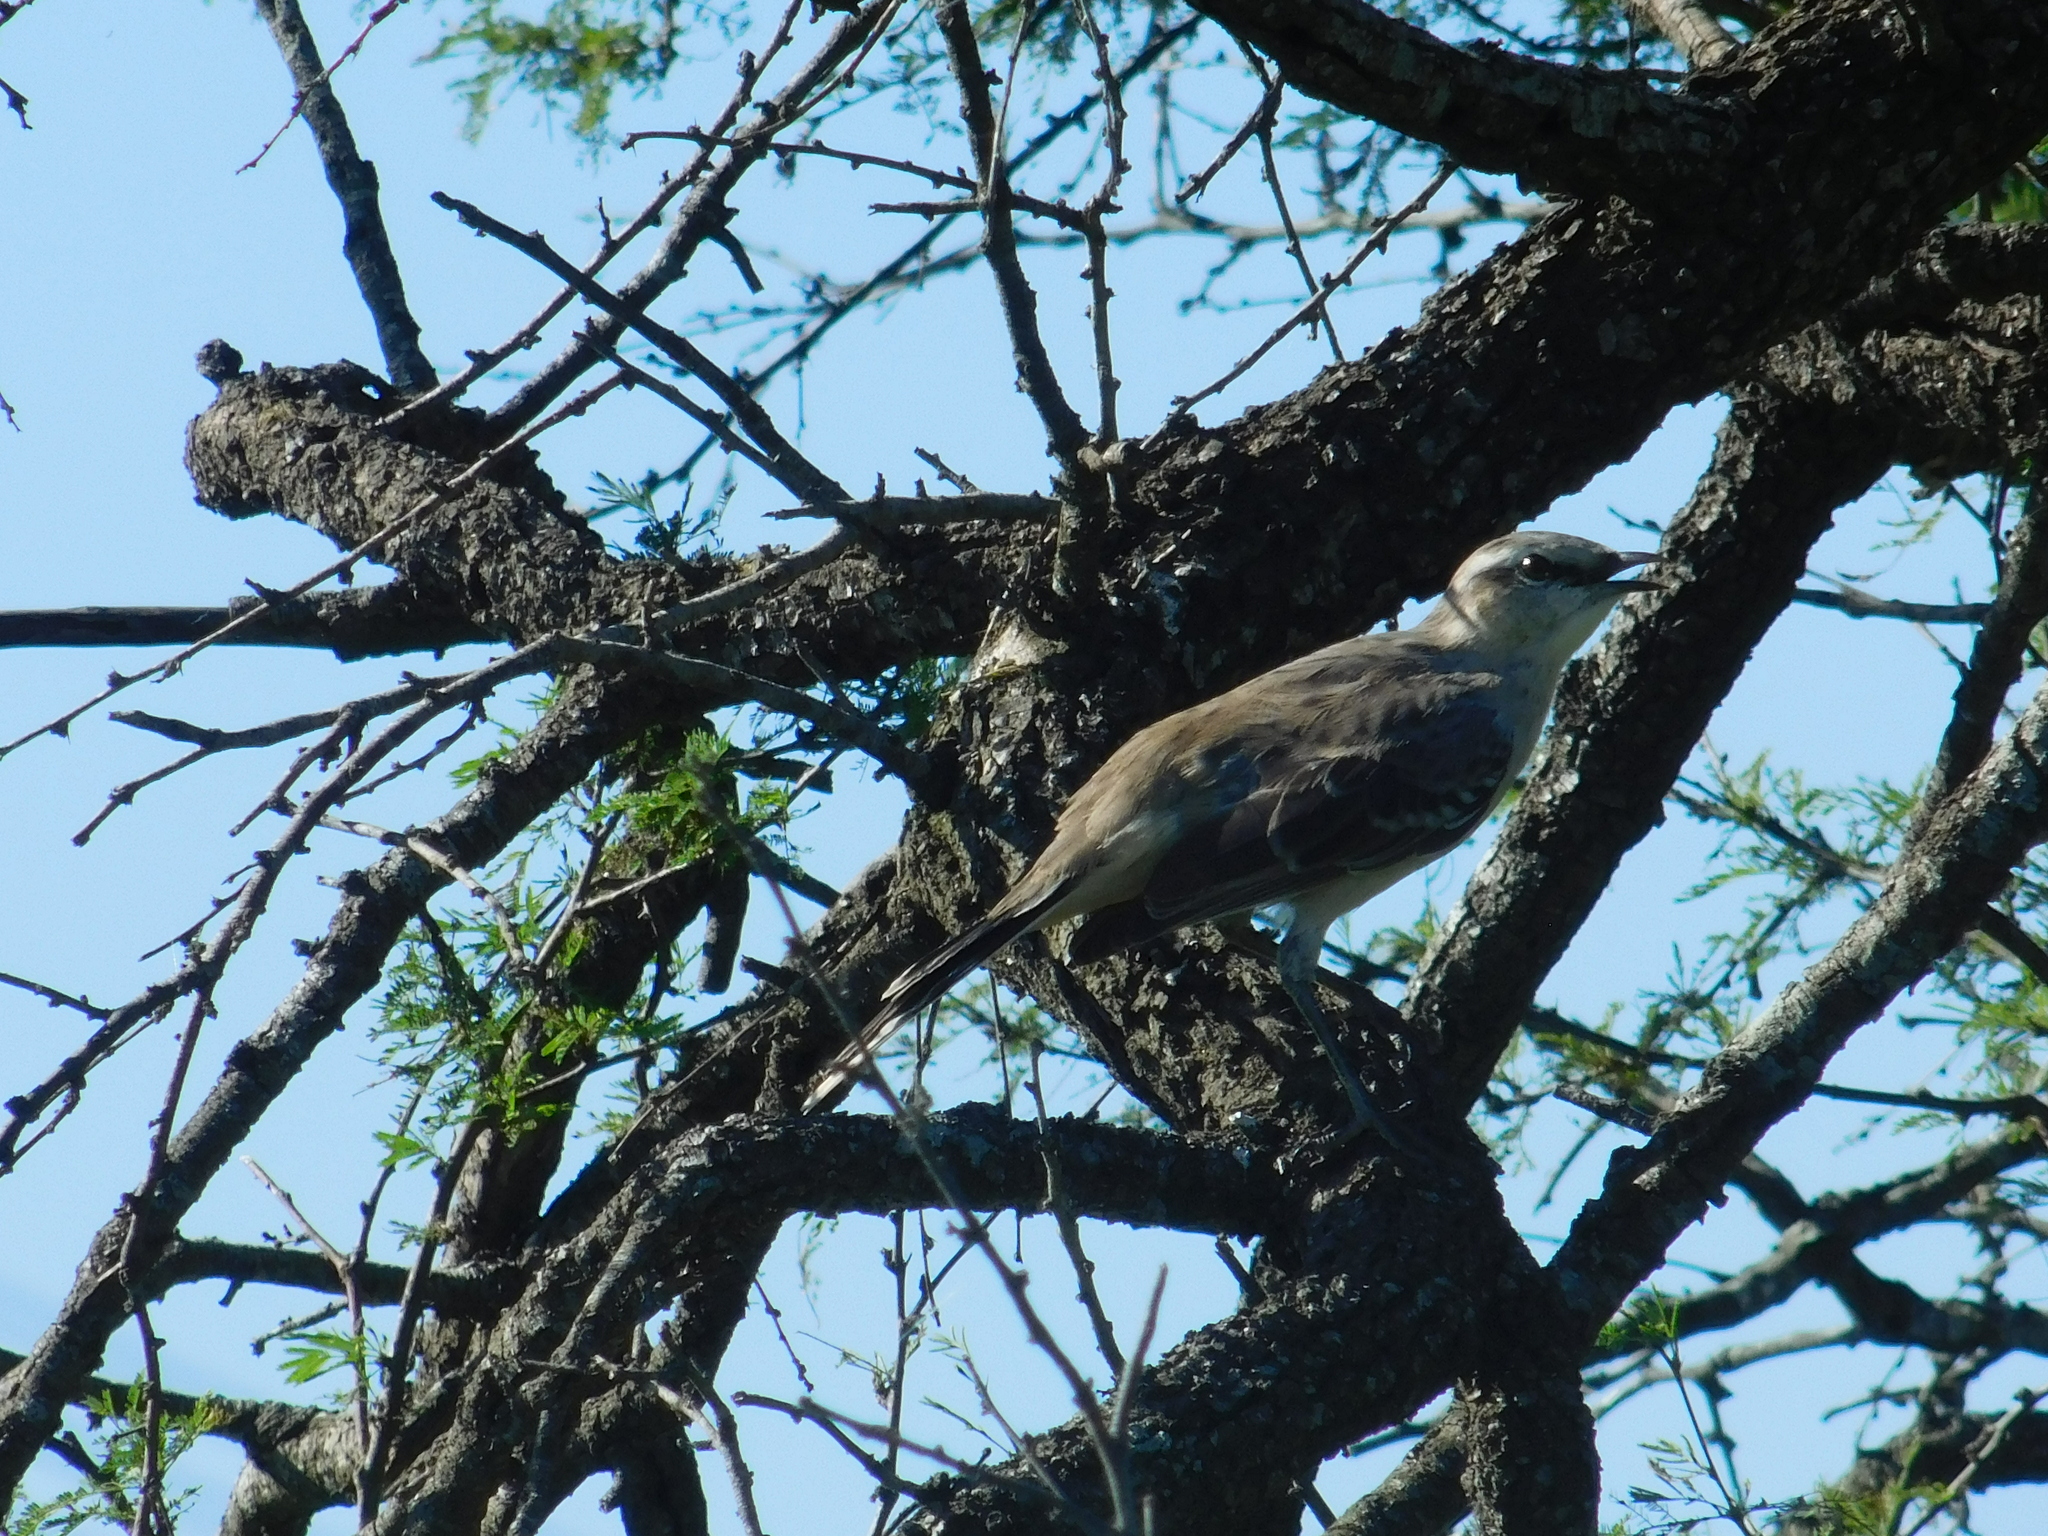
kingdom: Animalia
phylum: Chordata
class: Aves
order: Passeriformes
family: Mimidae
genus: Mimus
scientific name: Mimus saturninus
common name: Chalk-browed mockingbird
